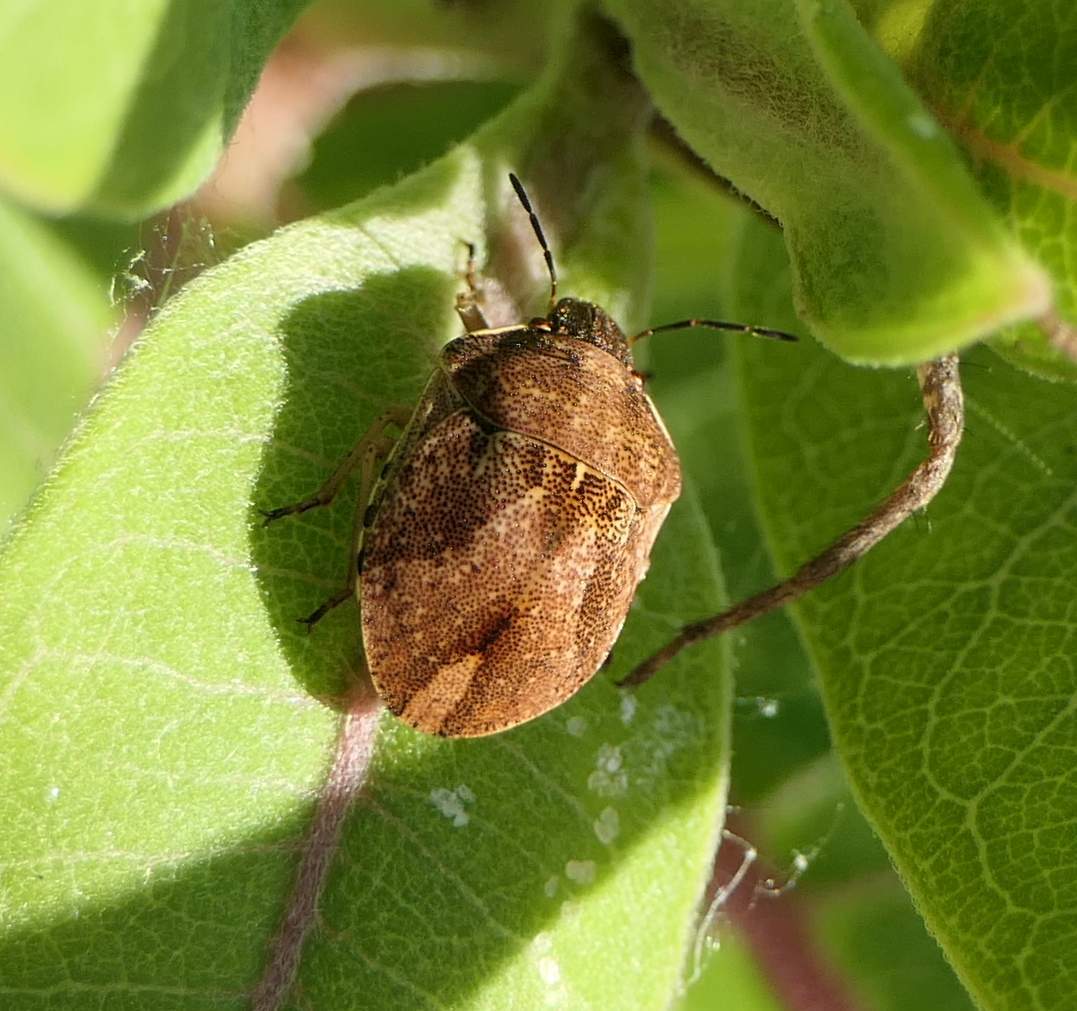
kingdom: Animalia
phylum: Arthropoda
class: Insecta
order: Hemiptera
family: Scutelleridae
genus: Homaemus
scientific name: Homaemus aeneifrons
